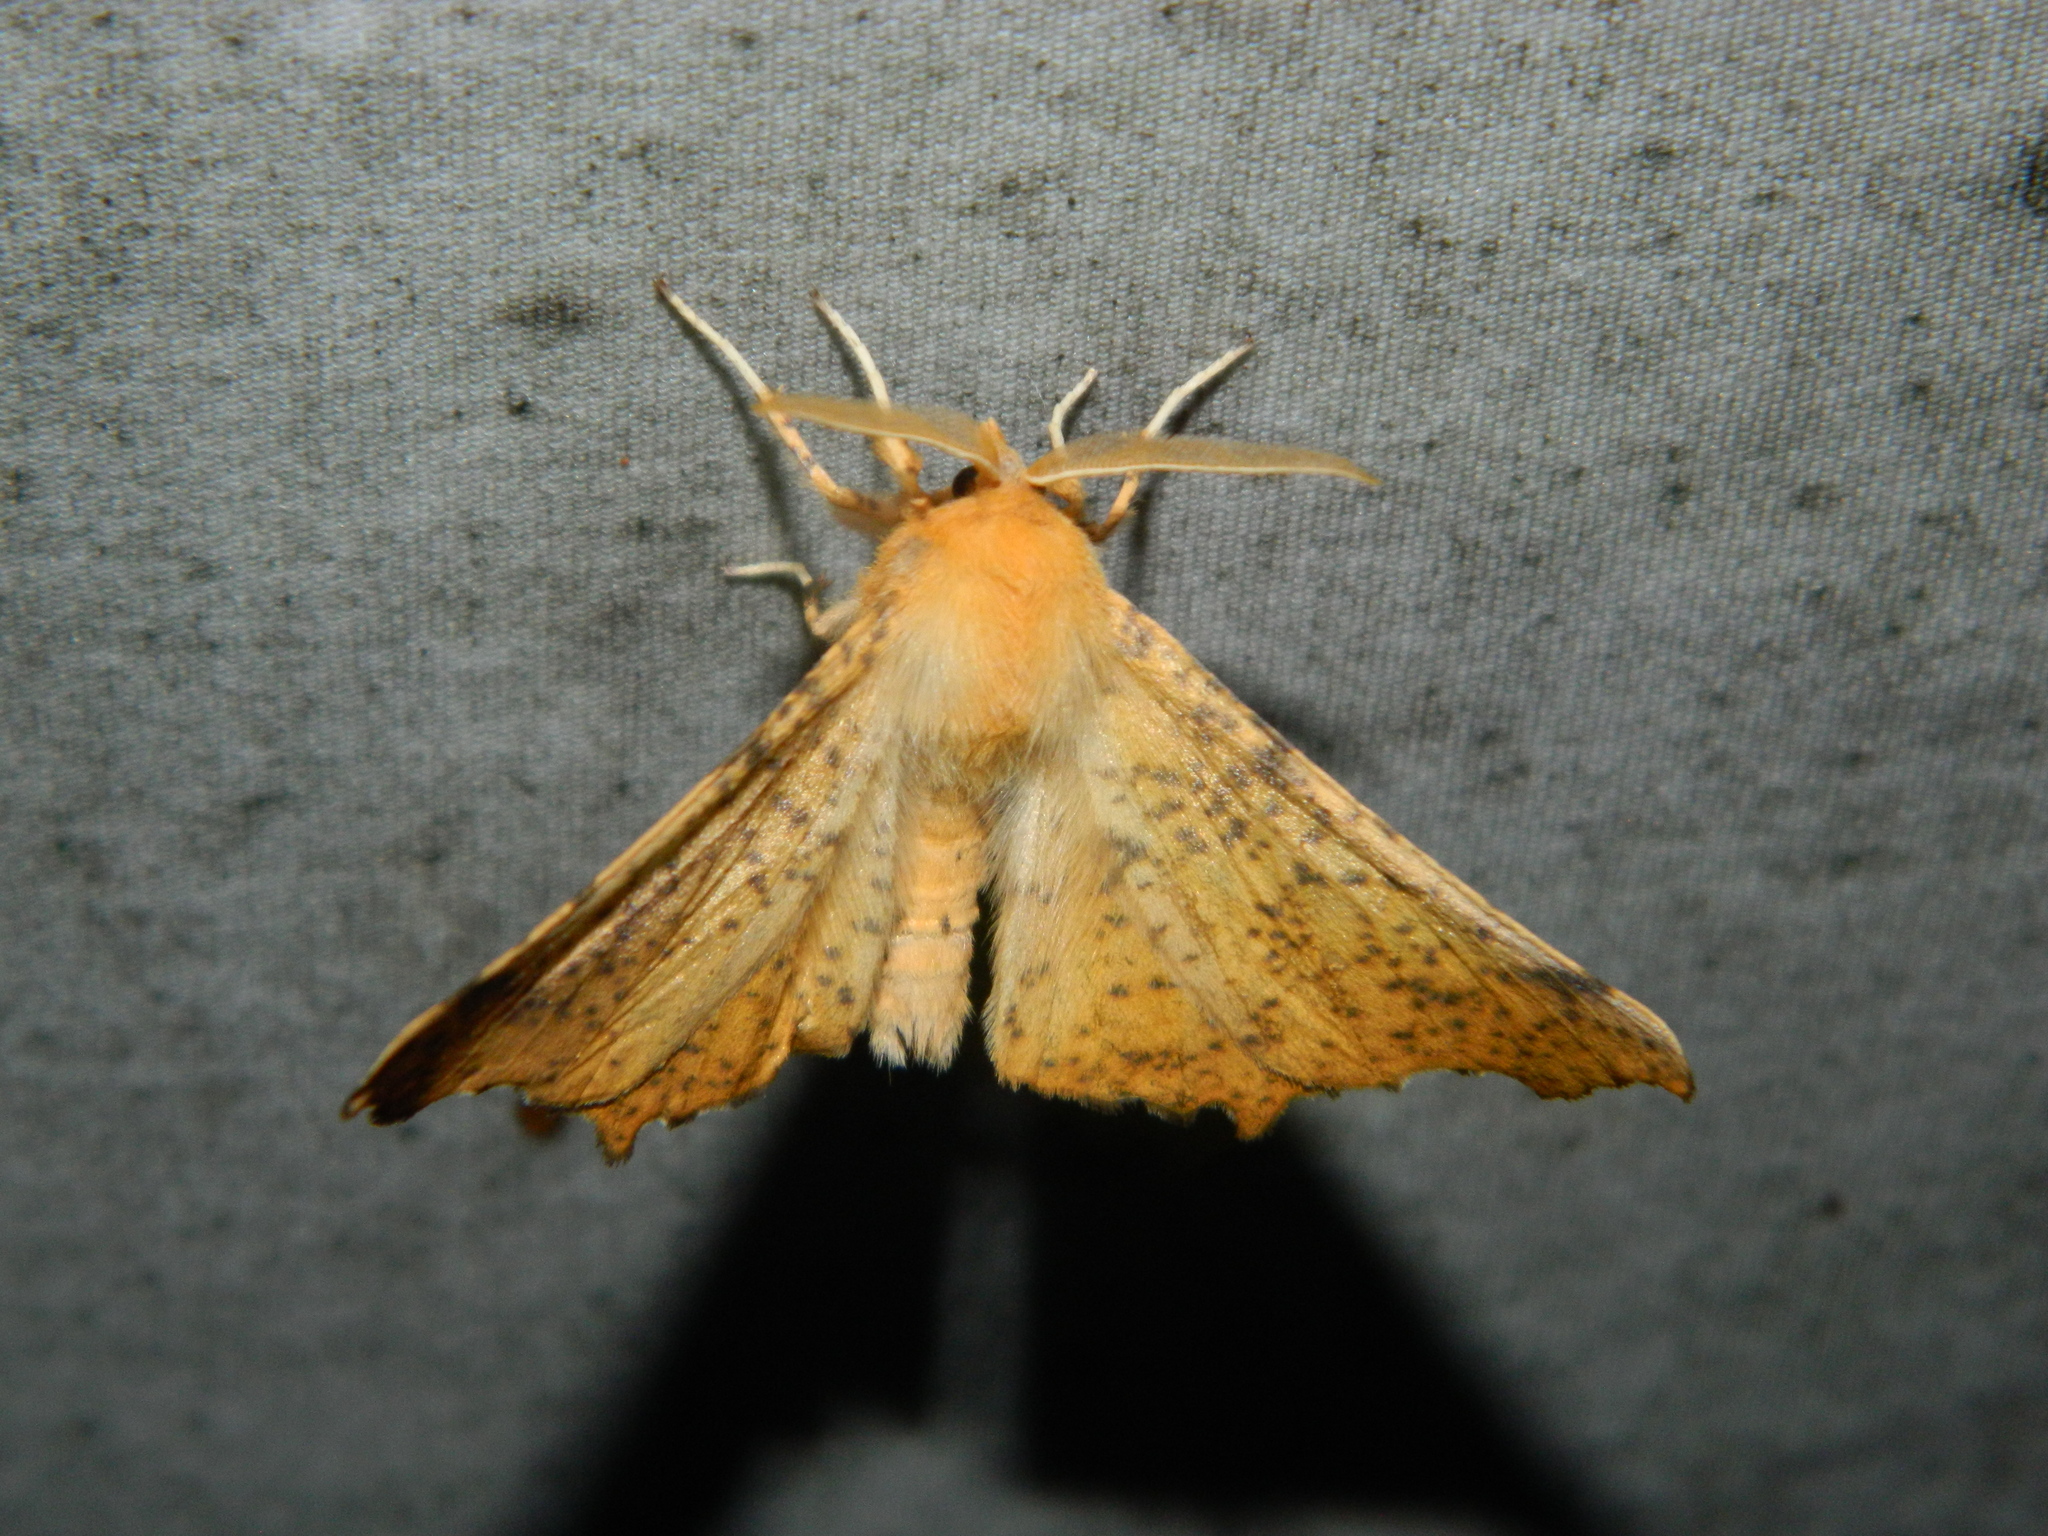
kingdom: Animalia
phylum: Arthropoda
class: Insecta
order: Lepidoptera
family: Geometridae
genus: Ennomos
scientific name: Ennomos magnaria
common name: Maple spanworm
